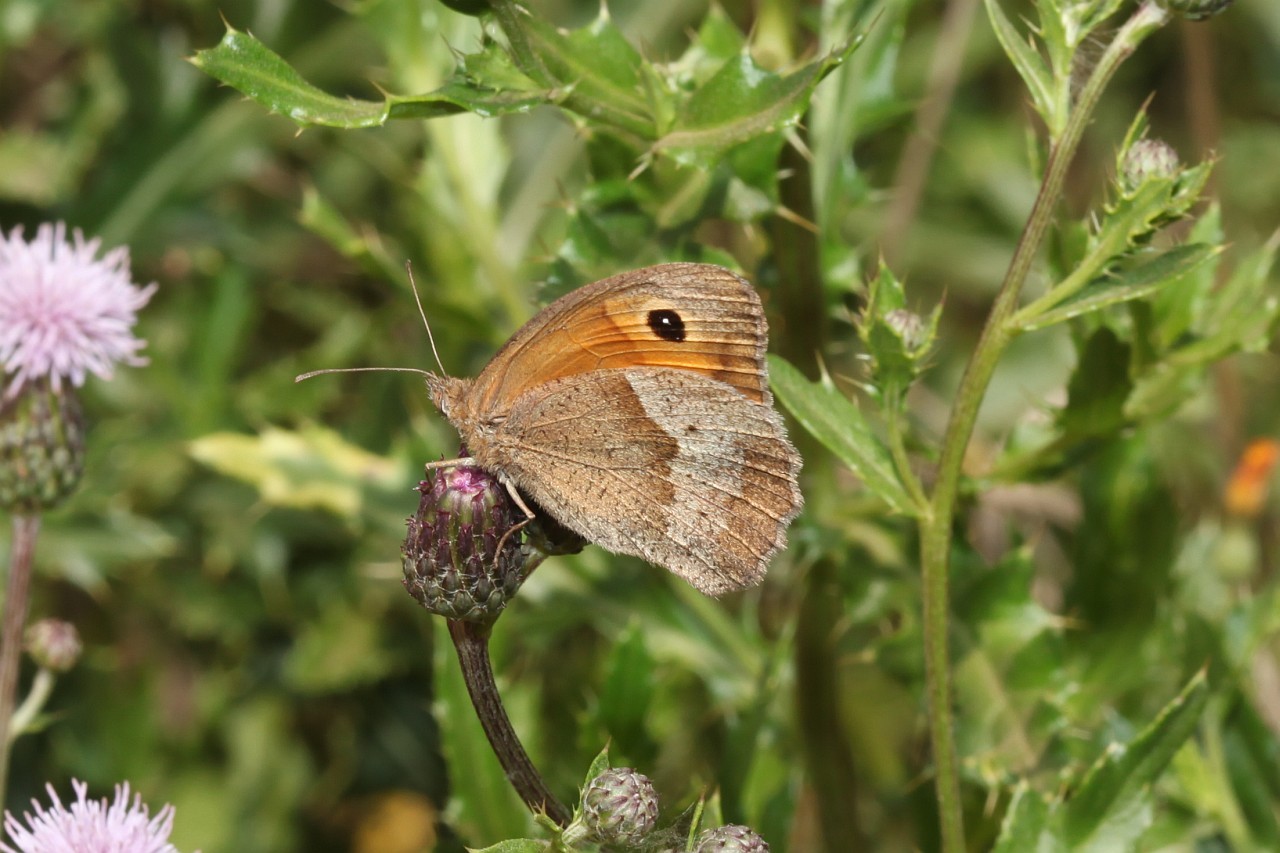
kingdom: Animalia
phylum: Arthropoda
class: Insecta
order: Lepidoptera
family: Nymphalidae
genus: Maniola
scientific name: Maniola jurtina
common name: Meadow brown
